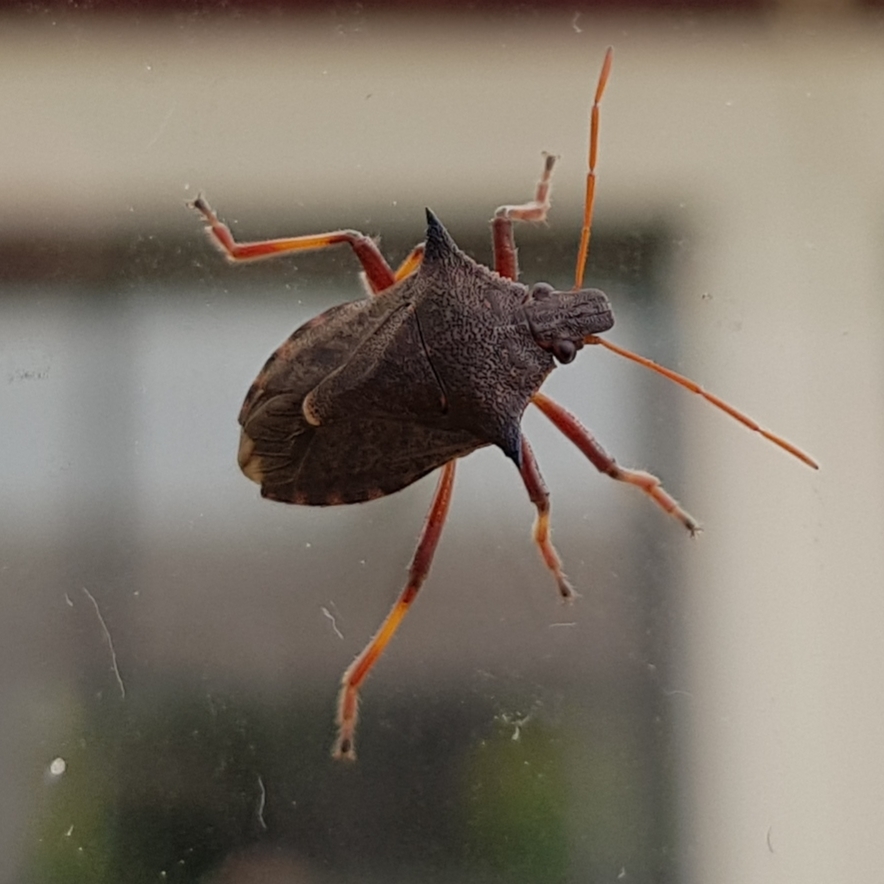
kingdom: Animalia
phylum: Arthropoda
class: Insecta
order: Hemiptera
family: Pentatomidae
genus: Picromerus
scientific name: Picromerus bidens
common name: Spiked shieldbug
